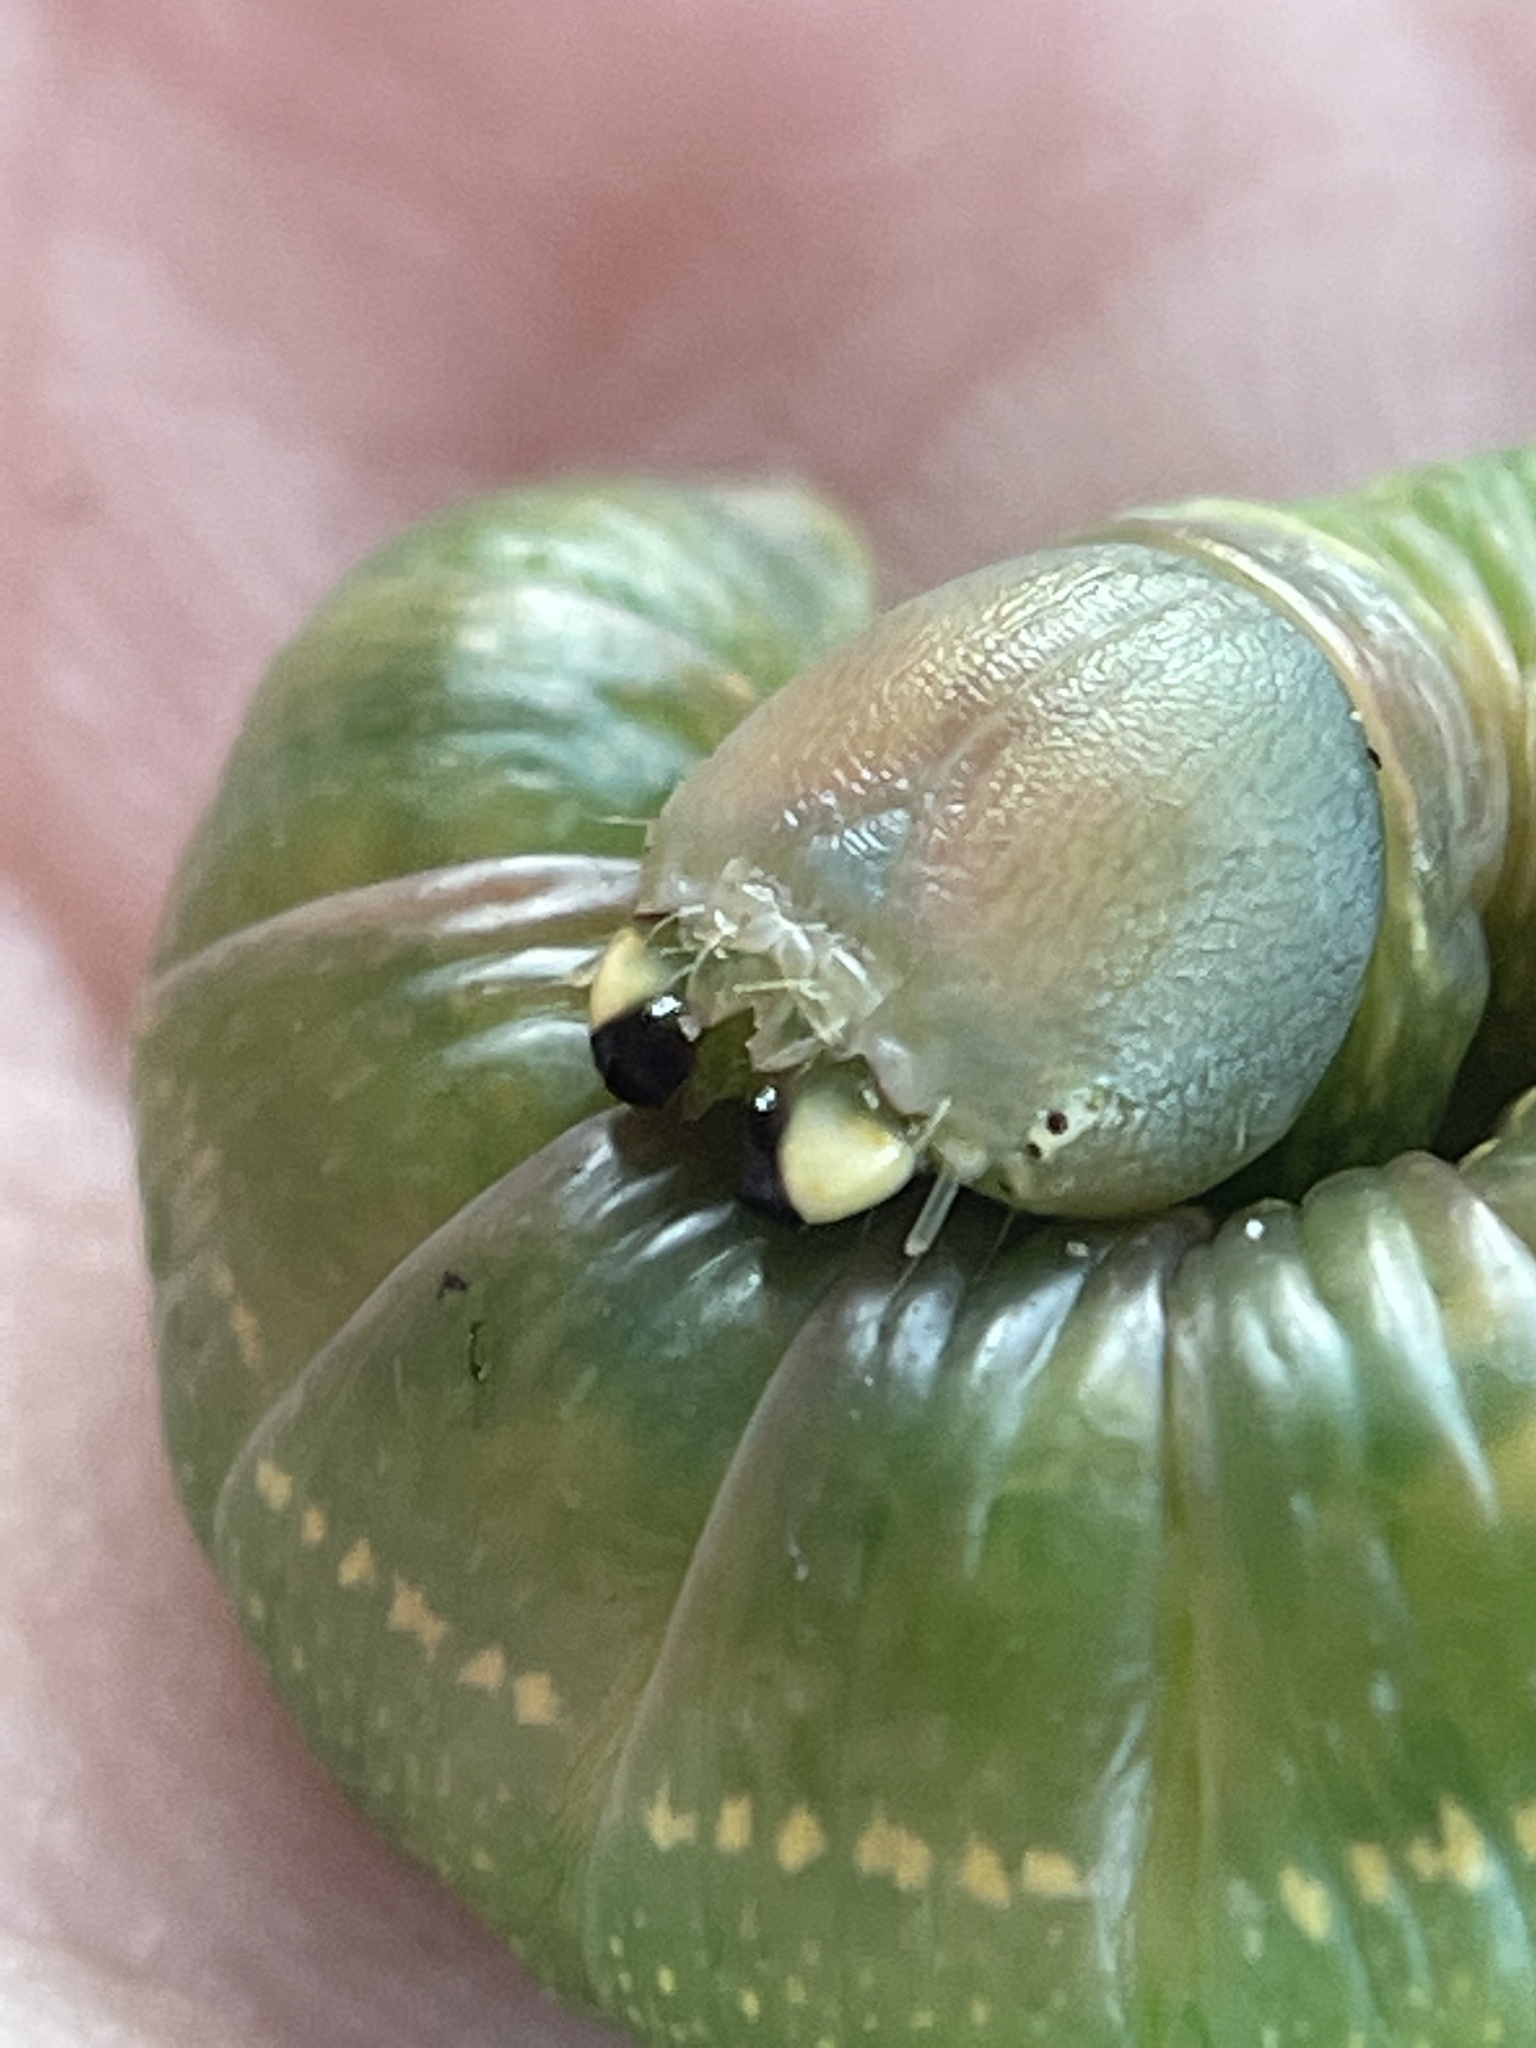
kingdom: Animalia
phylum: Arthropoda
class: Insecta
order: Lepidoptera
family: Notodontidae
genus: Nadata
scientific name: Nadata gibbosa
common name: White-dotted prominent
